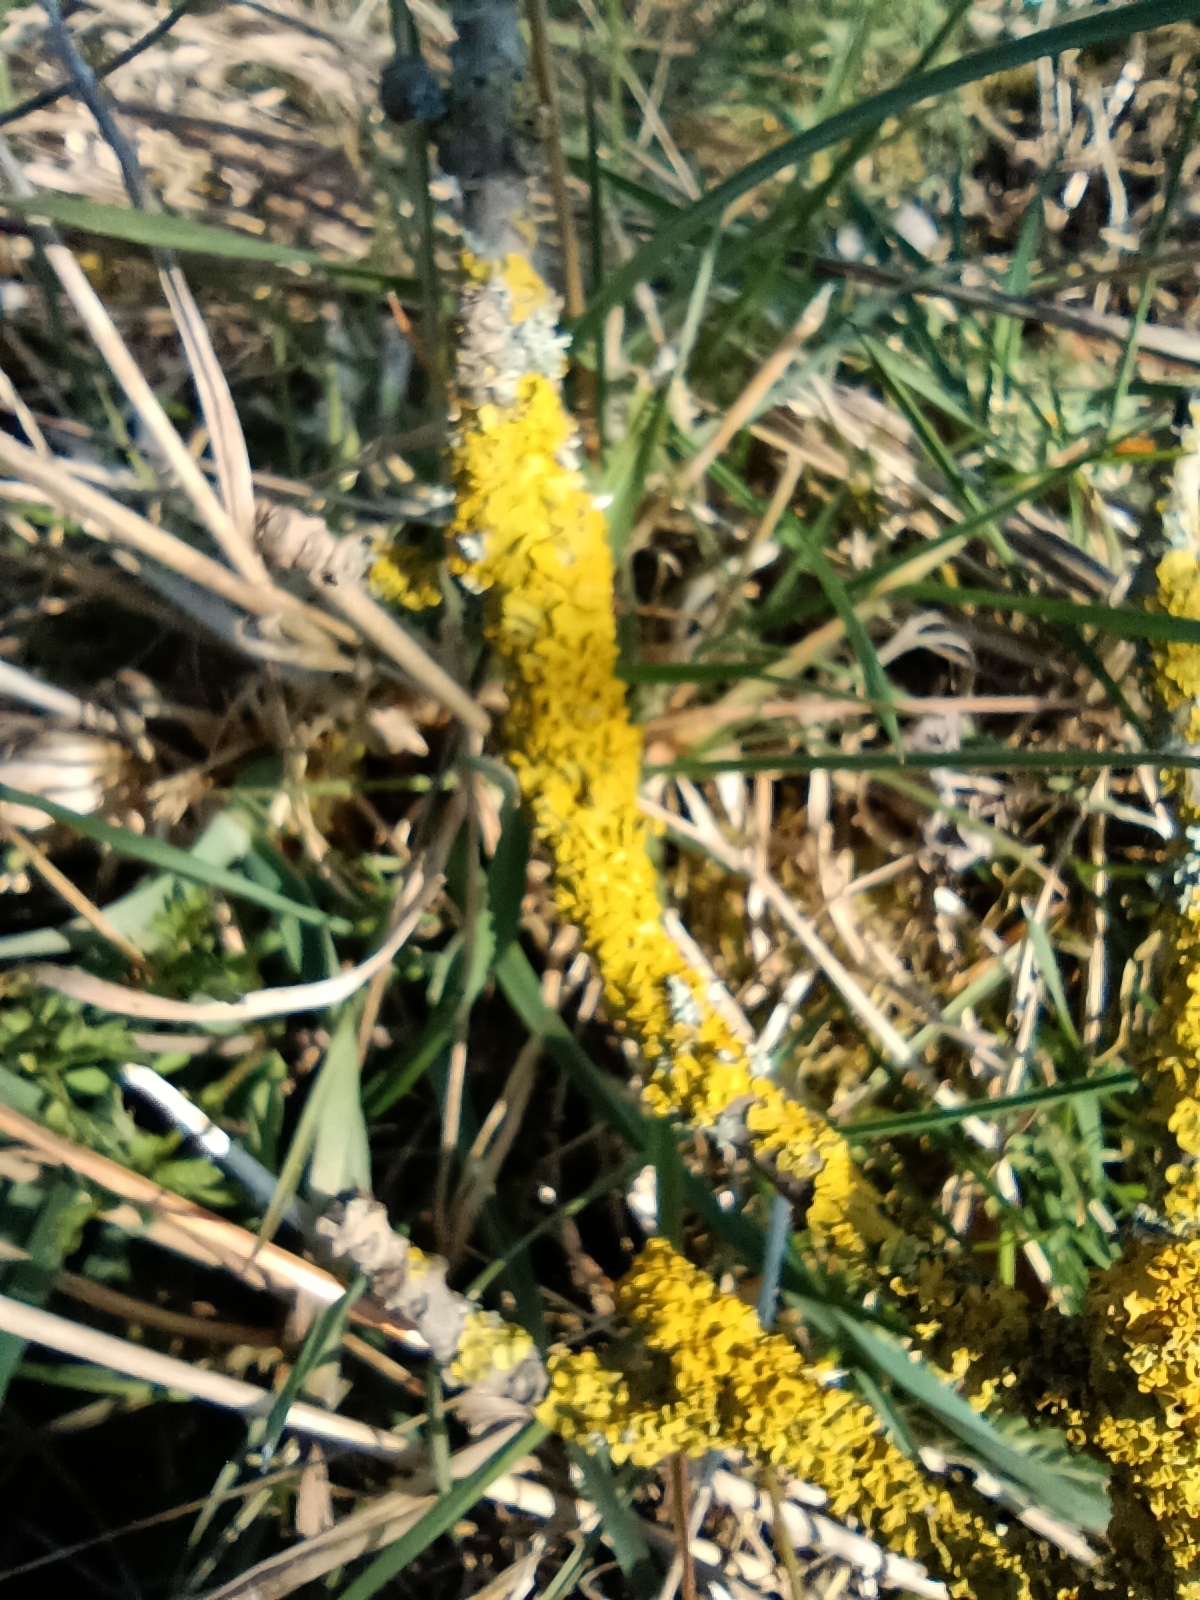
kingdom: Fungi
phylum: Ascomycota
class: Lecanoromycetes
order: Teloschistales
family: Teloschistaceae
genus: Xanthoria
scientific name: Xanthoria parietina
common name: Common orange lichen
